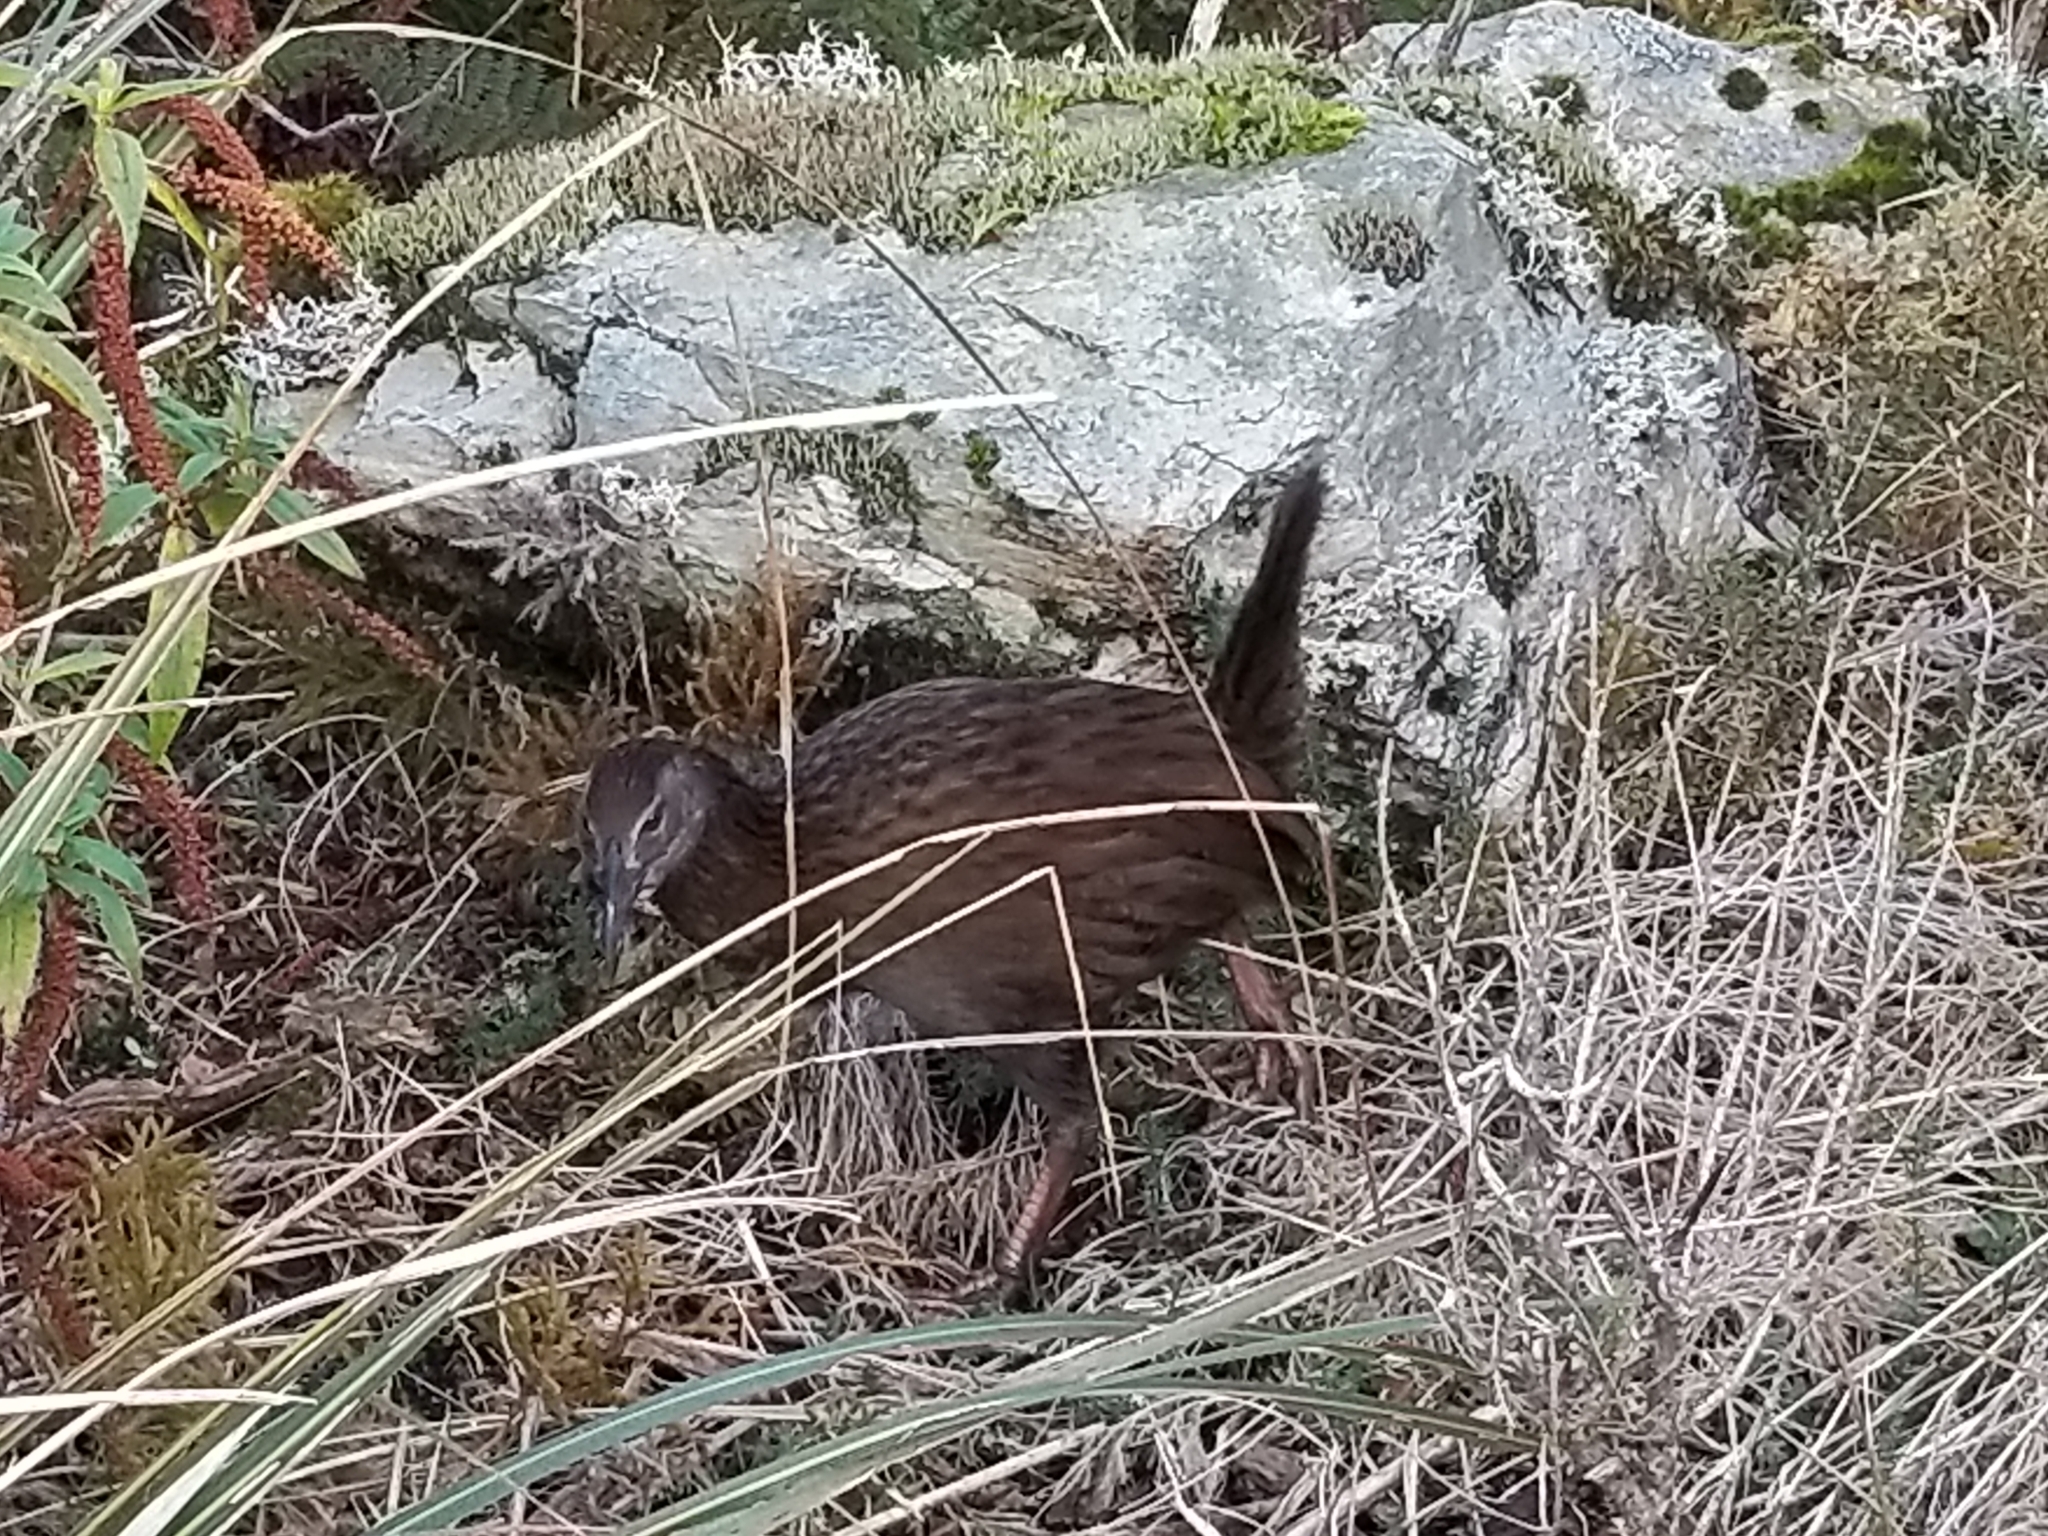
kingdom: Animalia
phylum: Chordata
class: Aves
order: Gruiformes
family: Rallidae
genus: Gallirallus
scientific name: Gallirallus australis
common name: Weka
